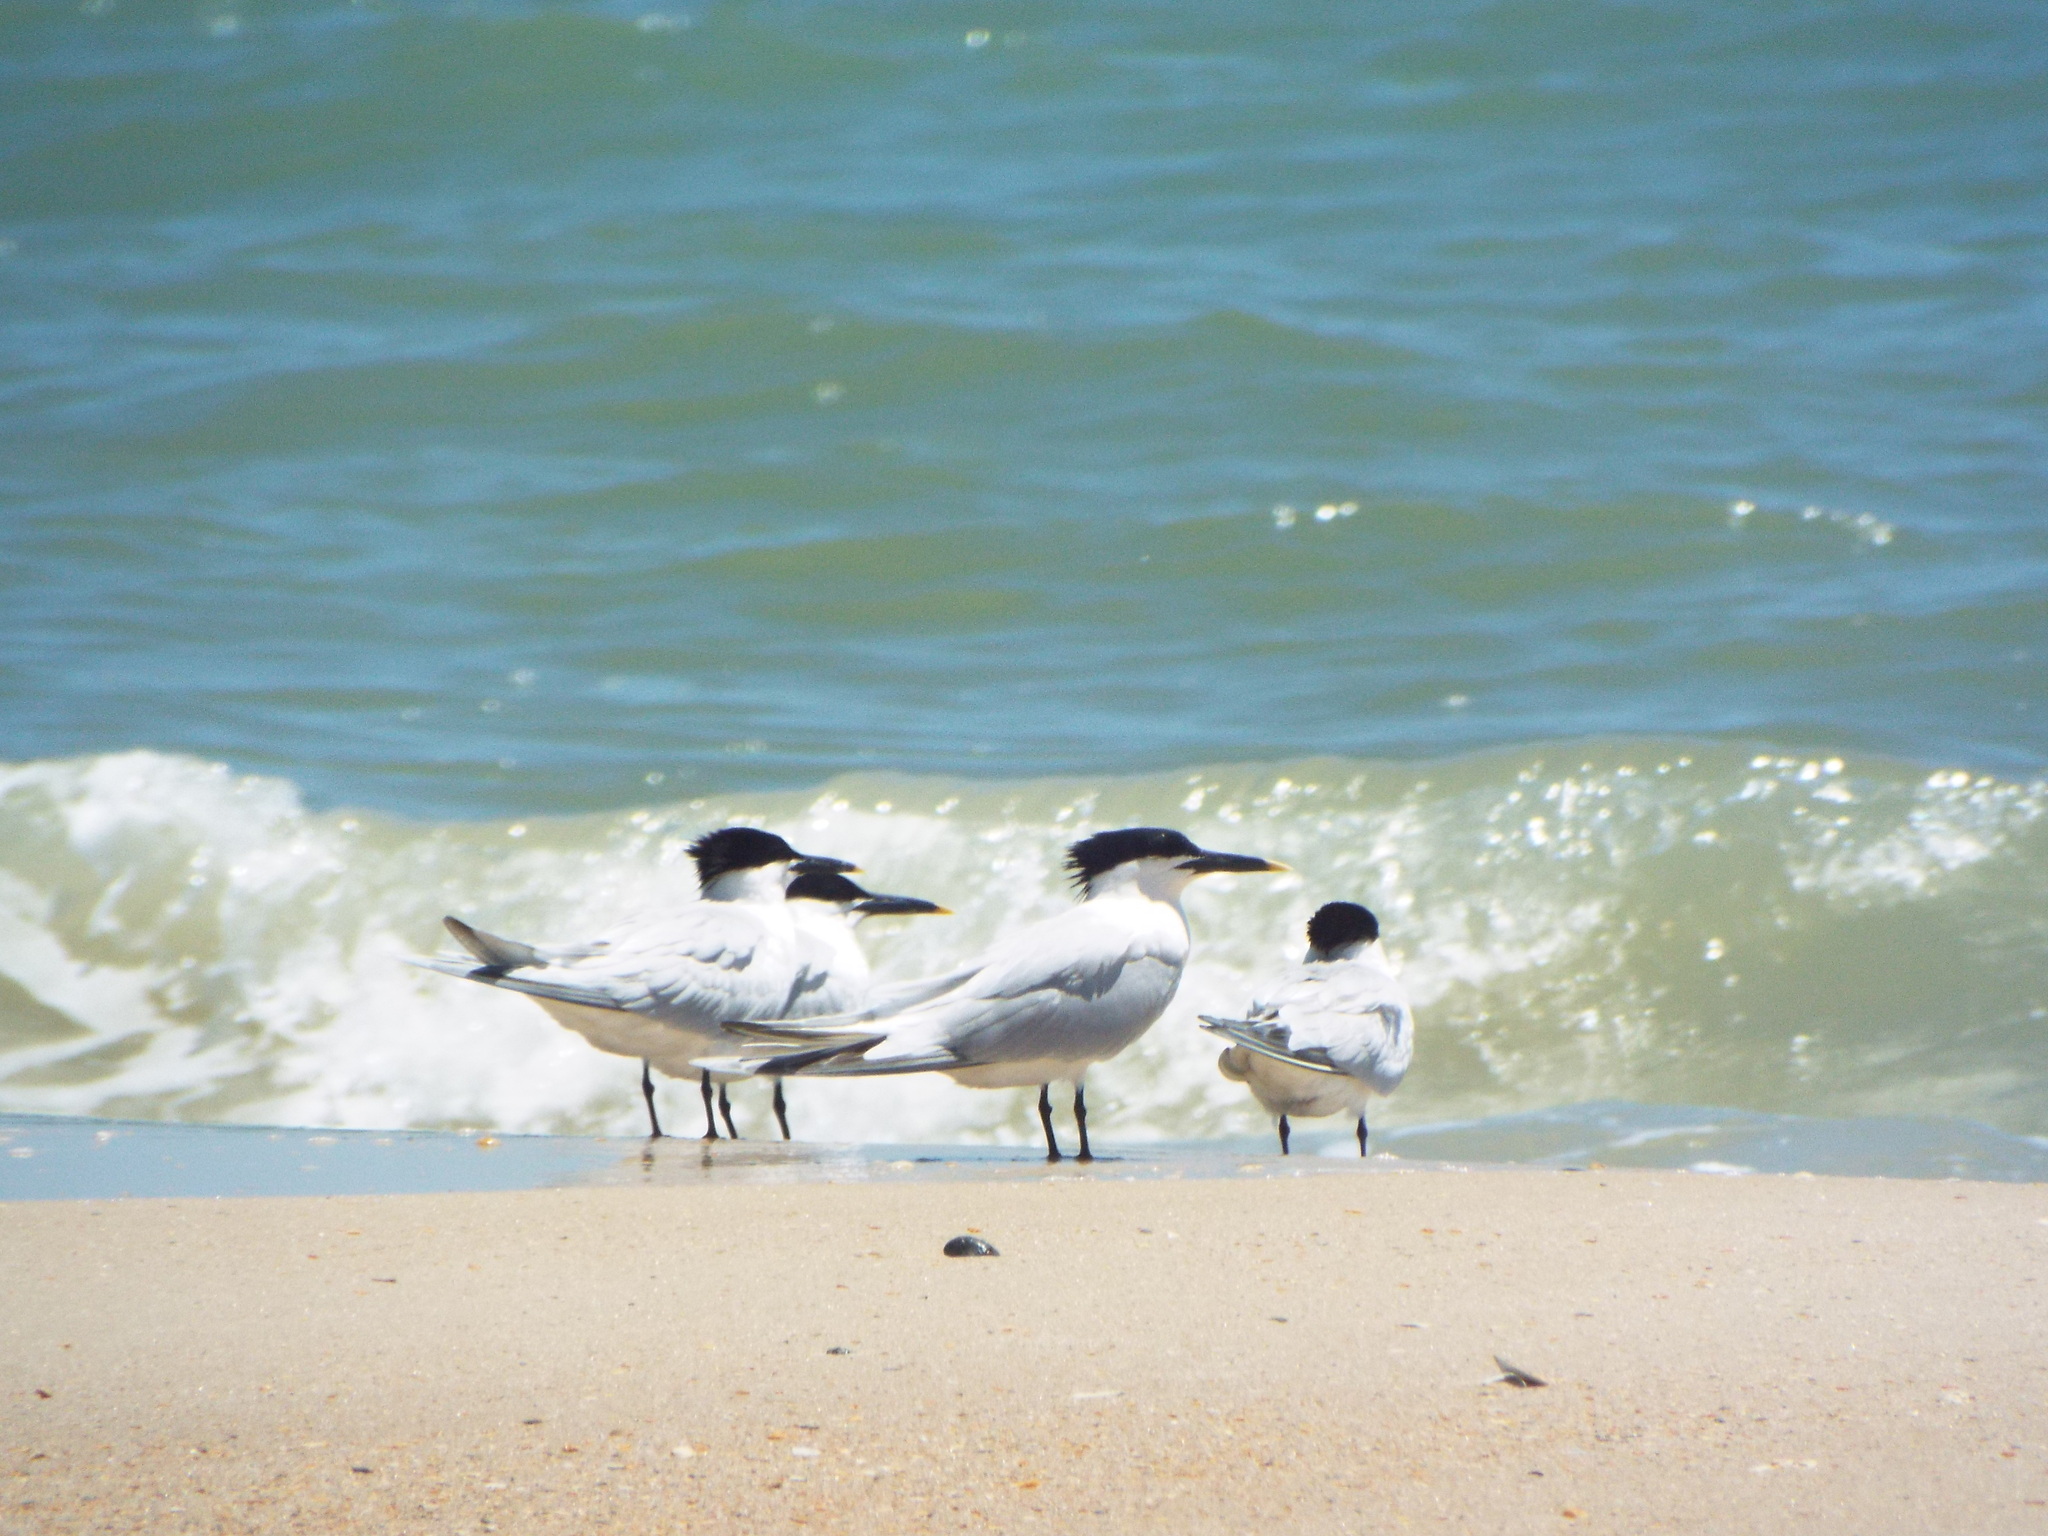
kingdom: Animalia
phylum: Chordata
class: Aves
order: Charadriiformes
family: Laridae
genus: Thalasseus
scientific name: Thalasseus acuflavidus
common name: Cabot's tern
